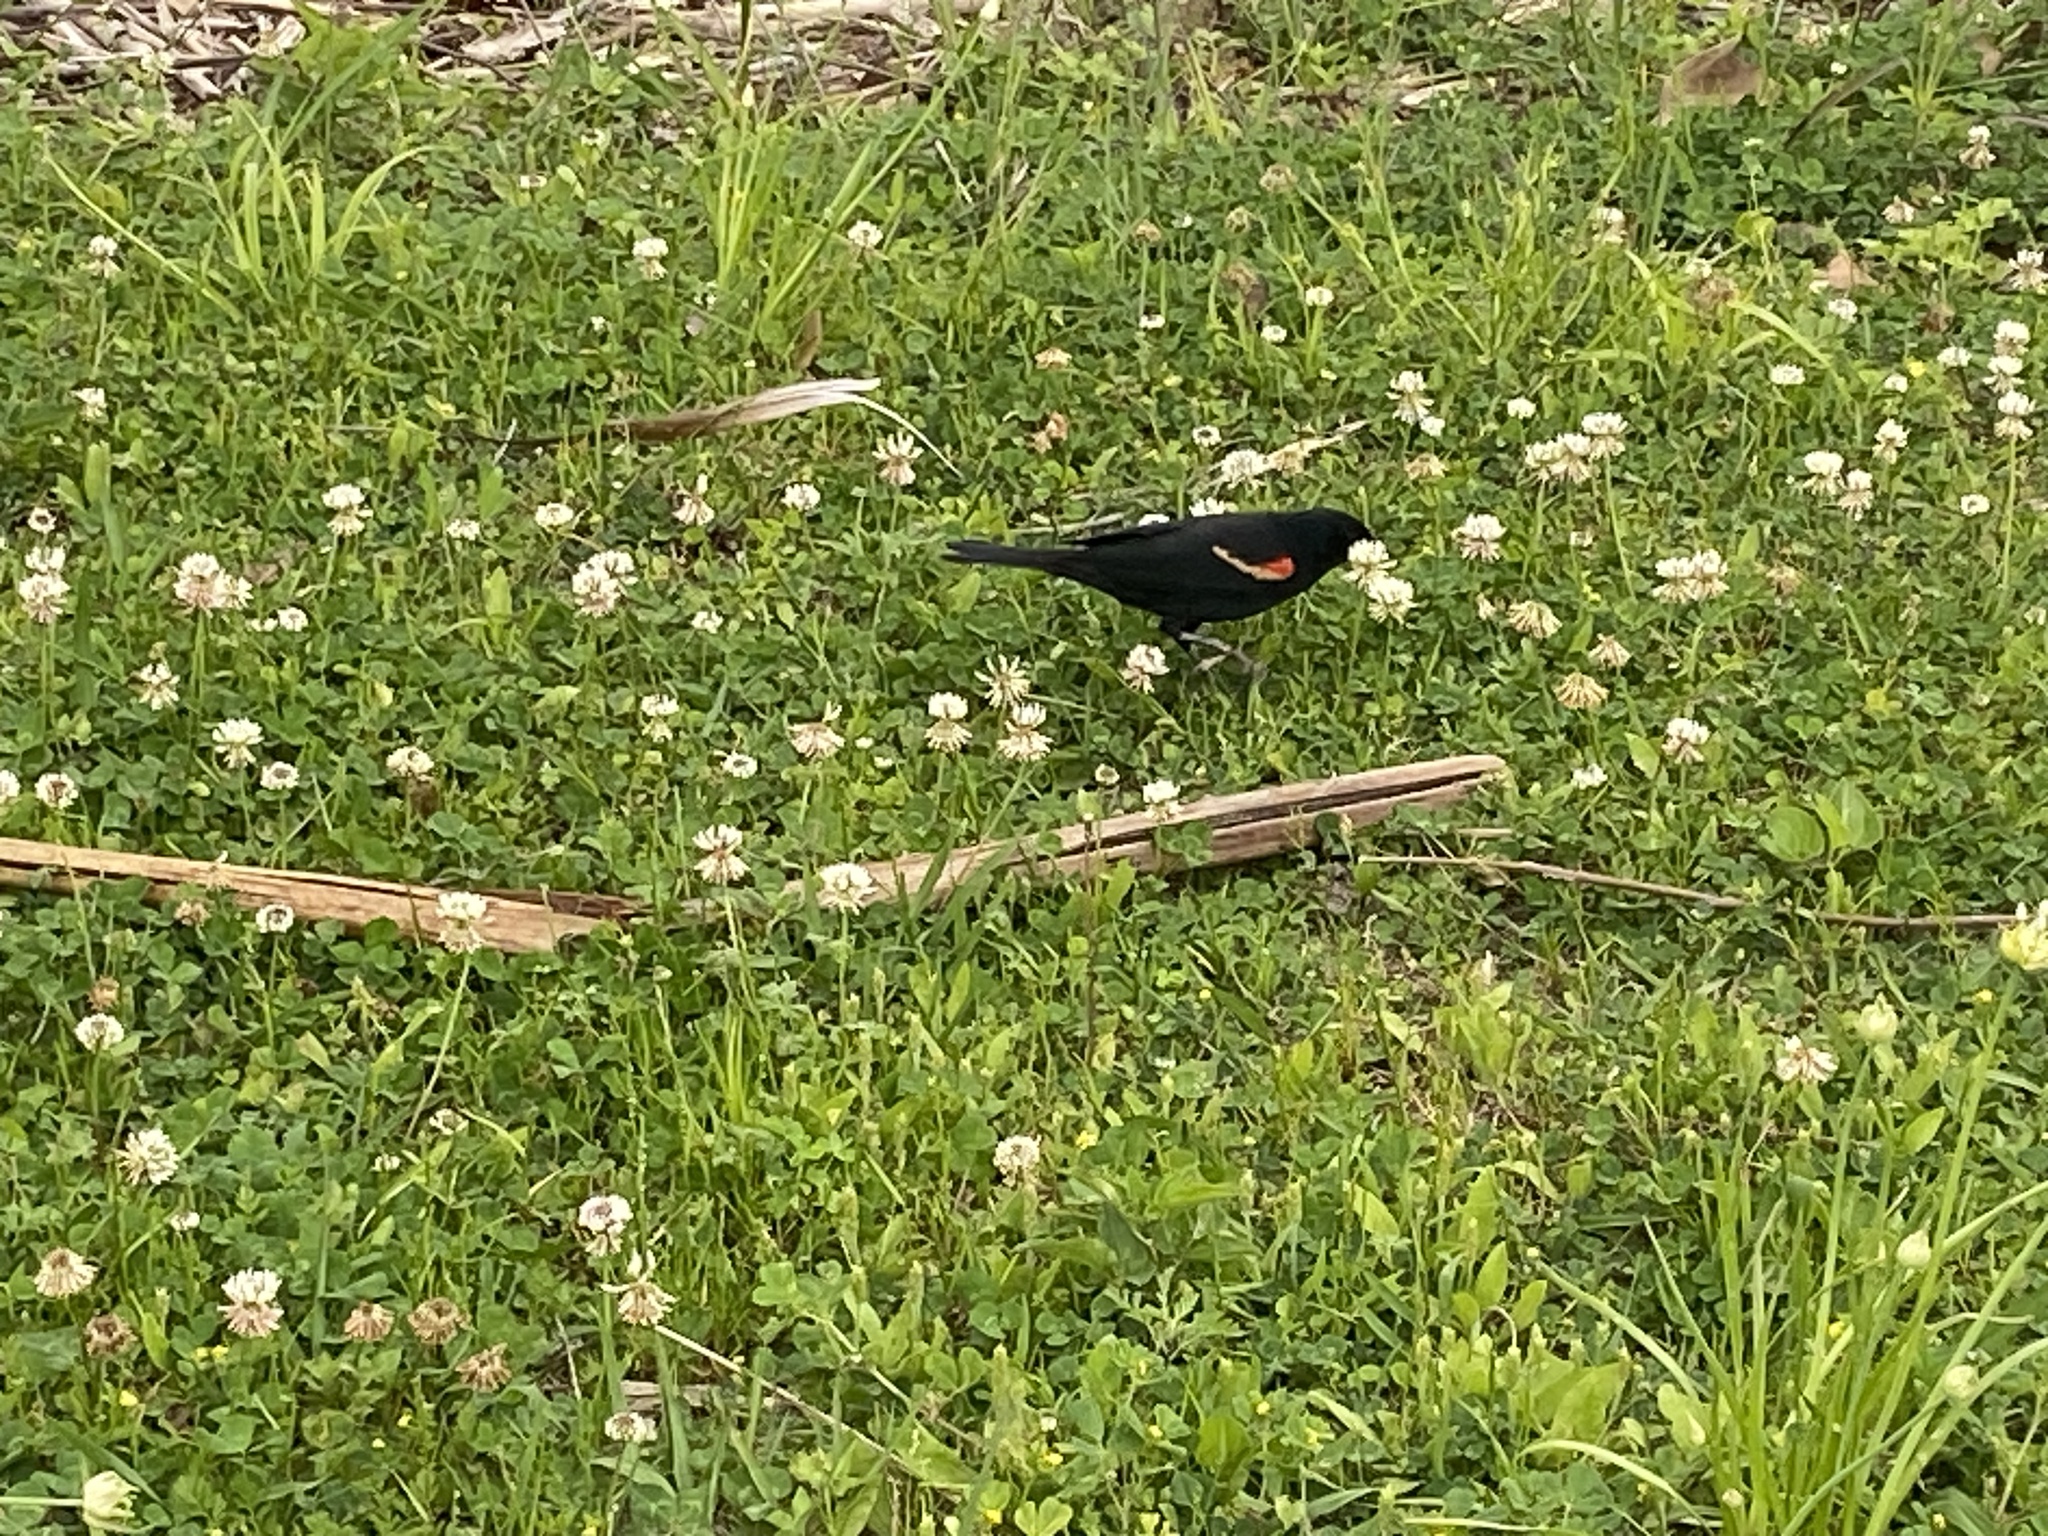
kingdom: Animalia
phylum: Chordata
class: Aves
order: Passeriformes
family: Icteridae
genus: Agelaius
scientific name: Agelaius phoeniceus
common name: Red-winged blackbird
